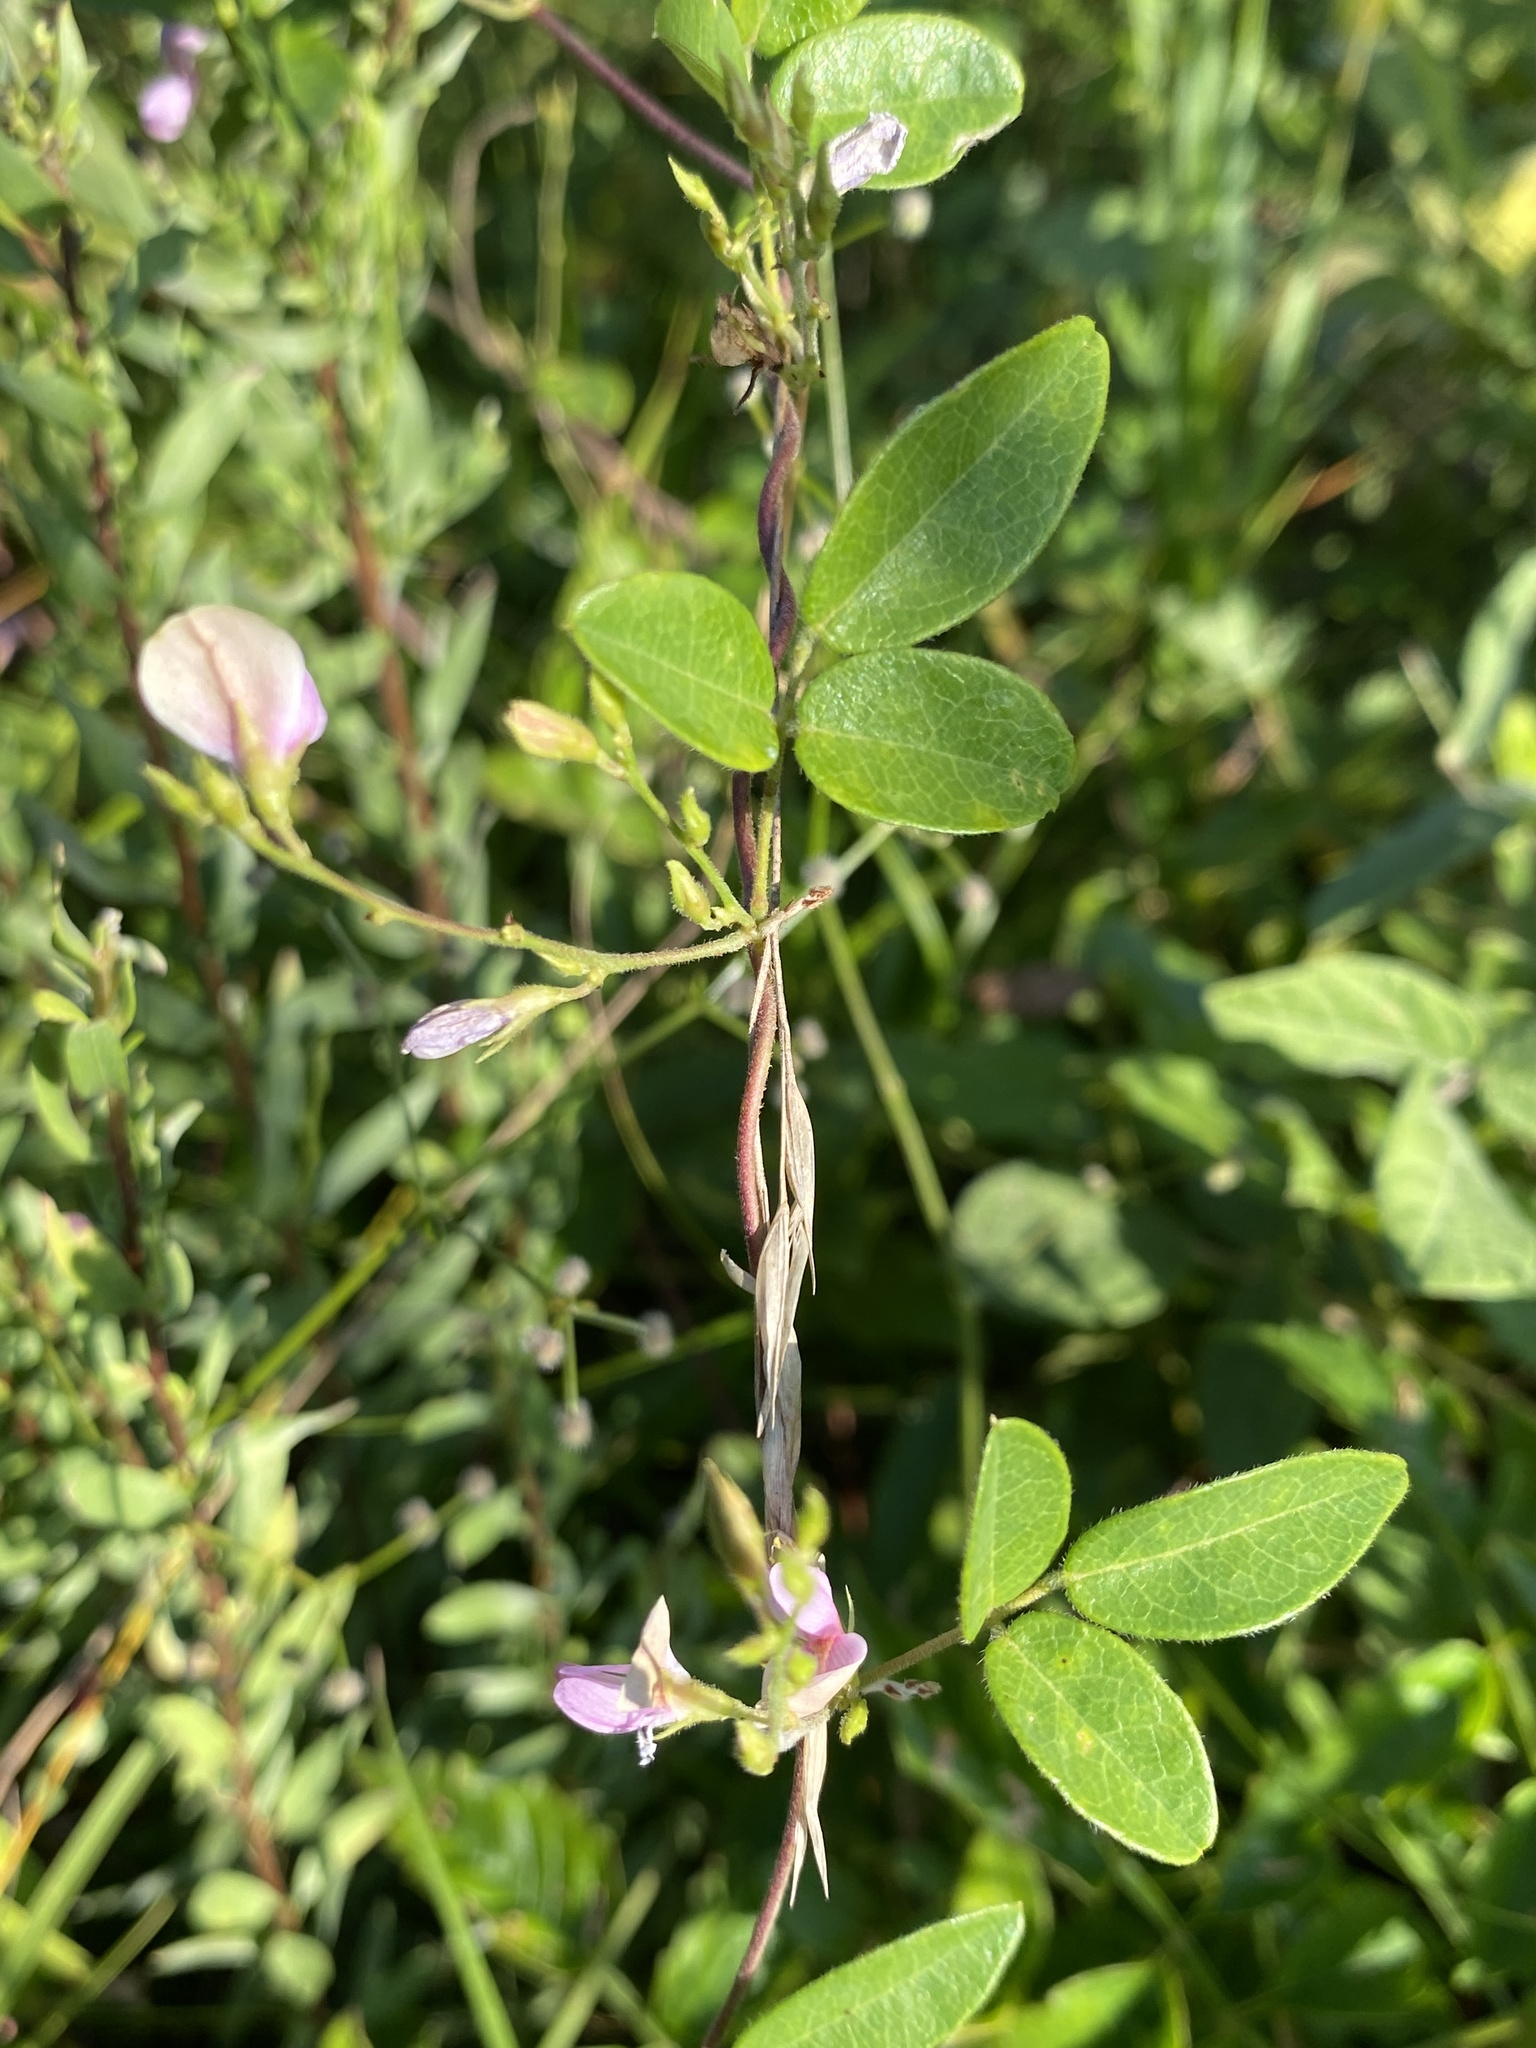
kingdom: Plantae
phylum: Tracheophyta
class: Magnoliopsida
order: Fabales
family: Fabaceae
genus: Galactia
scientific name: Galactia regularis
